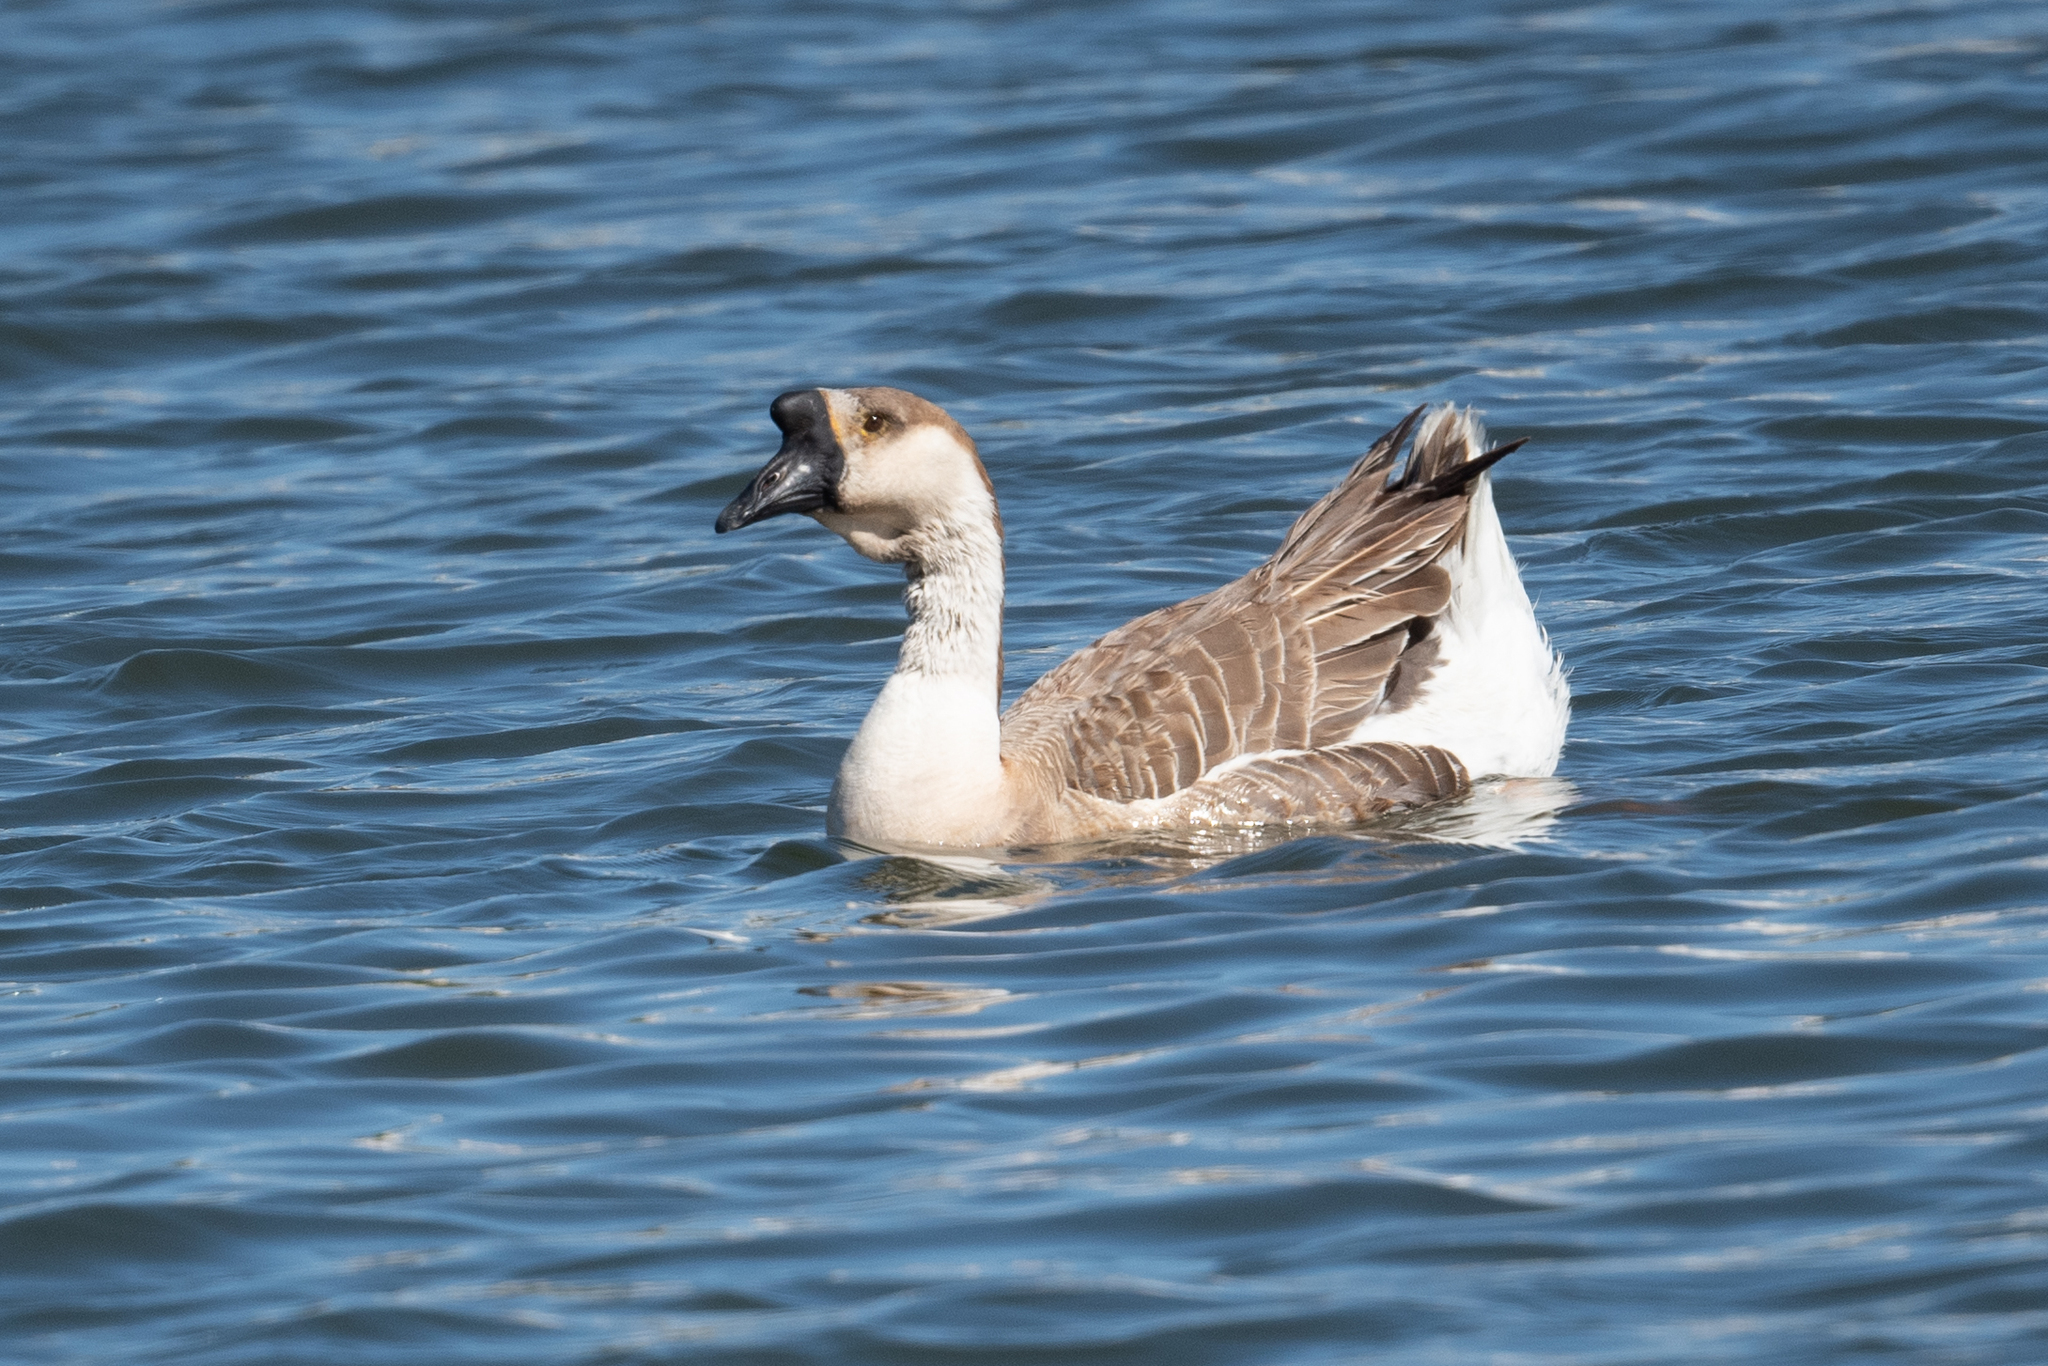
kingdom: Animalia
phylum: Chordata
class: Aves
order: Anseriformes
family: Anatidae
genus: Anser
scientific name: Anser cygnoides
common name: Swan goose
